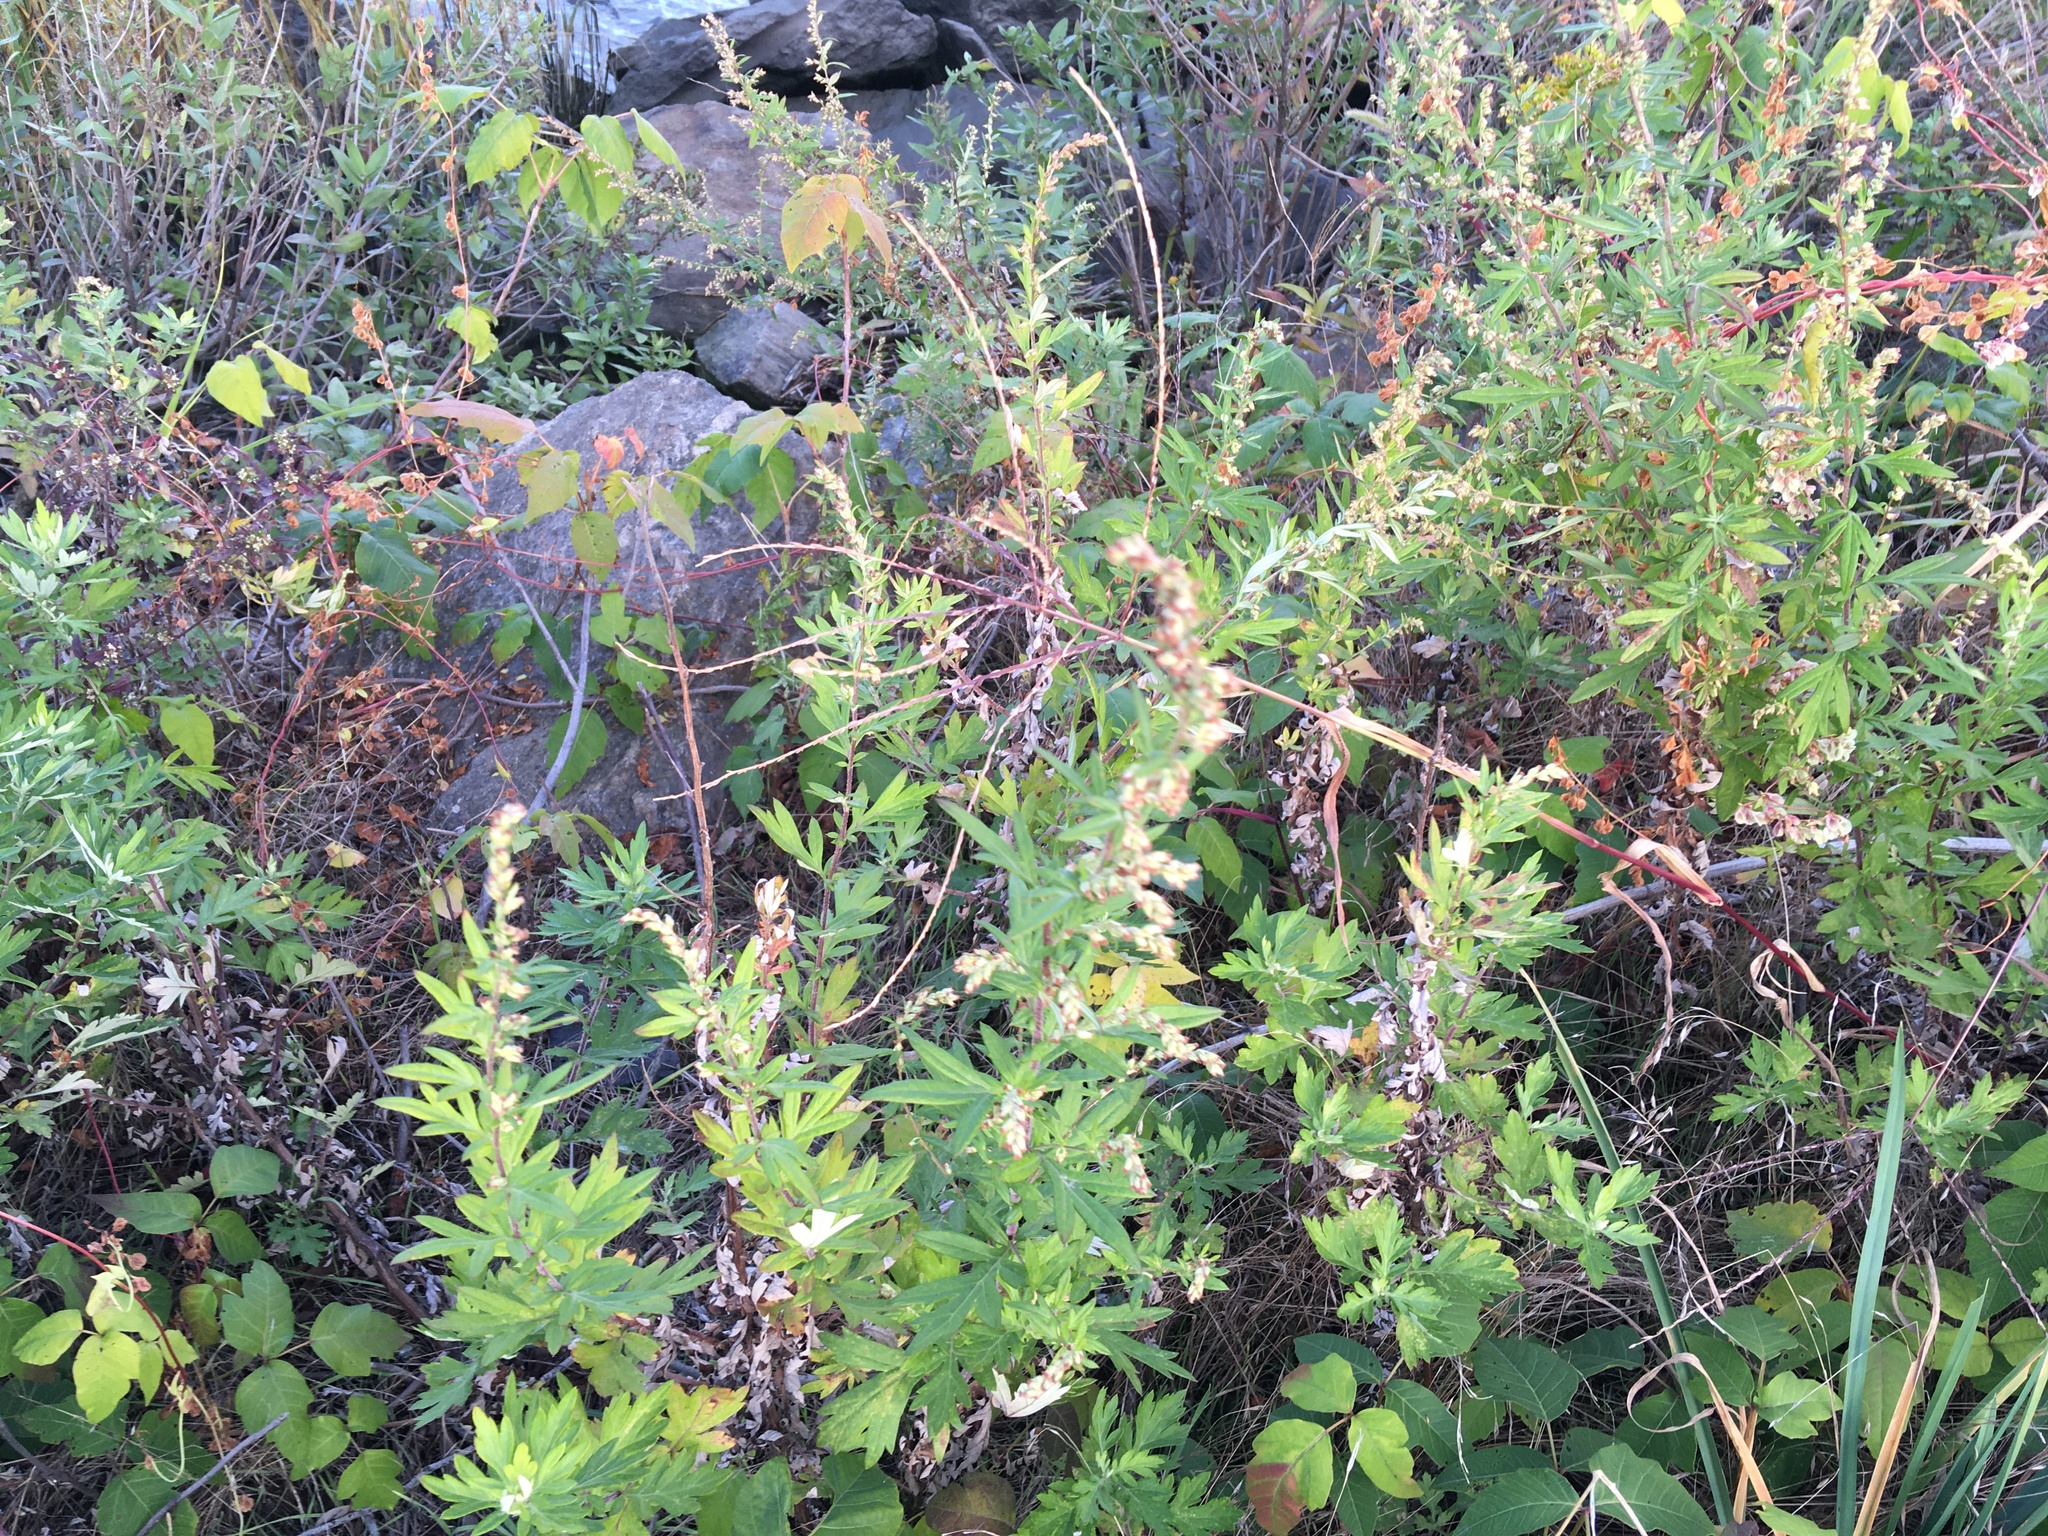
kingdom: Plantae
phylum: Tracheophyta
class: Magnoliopsida
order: Asterales
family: Asteraceae
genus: Artemisia
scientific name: Artemisia vulgaris
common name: Mugwort
